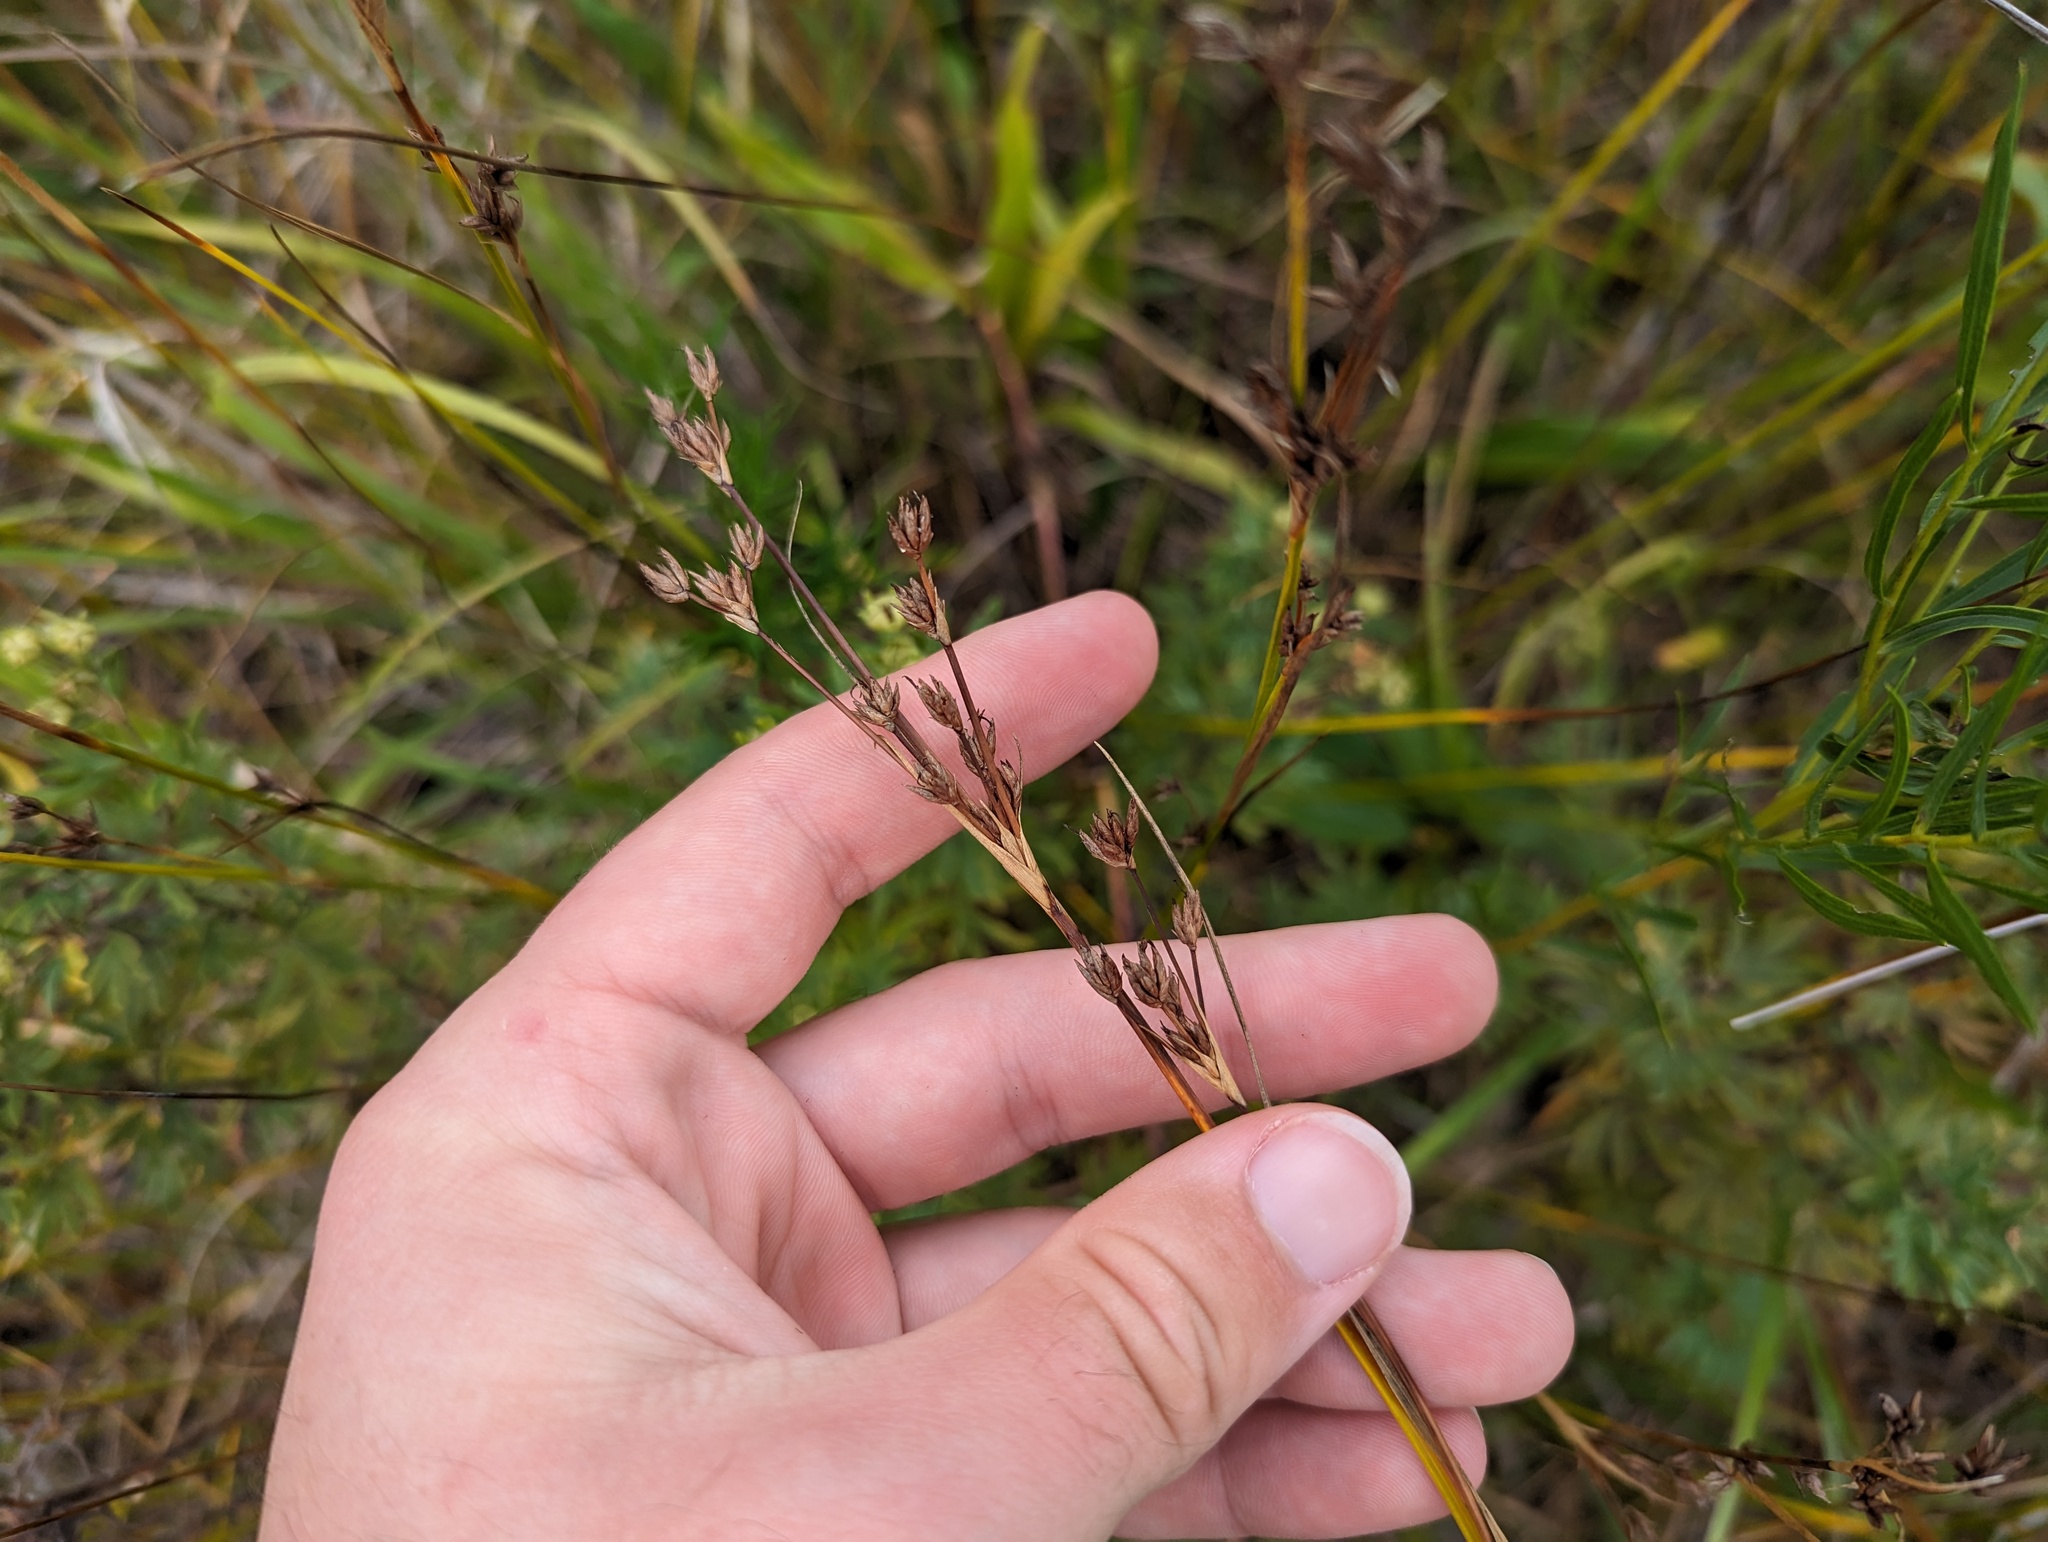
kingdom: Plantae
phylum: Tracheophyta
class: Liliopsida
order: Poales
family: Cyperaceae
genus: Cladium
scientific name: Cladium mariscoides
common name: Smooth sawgrass
